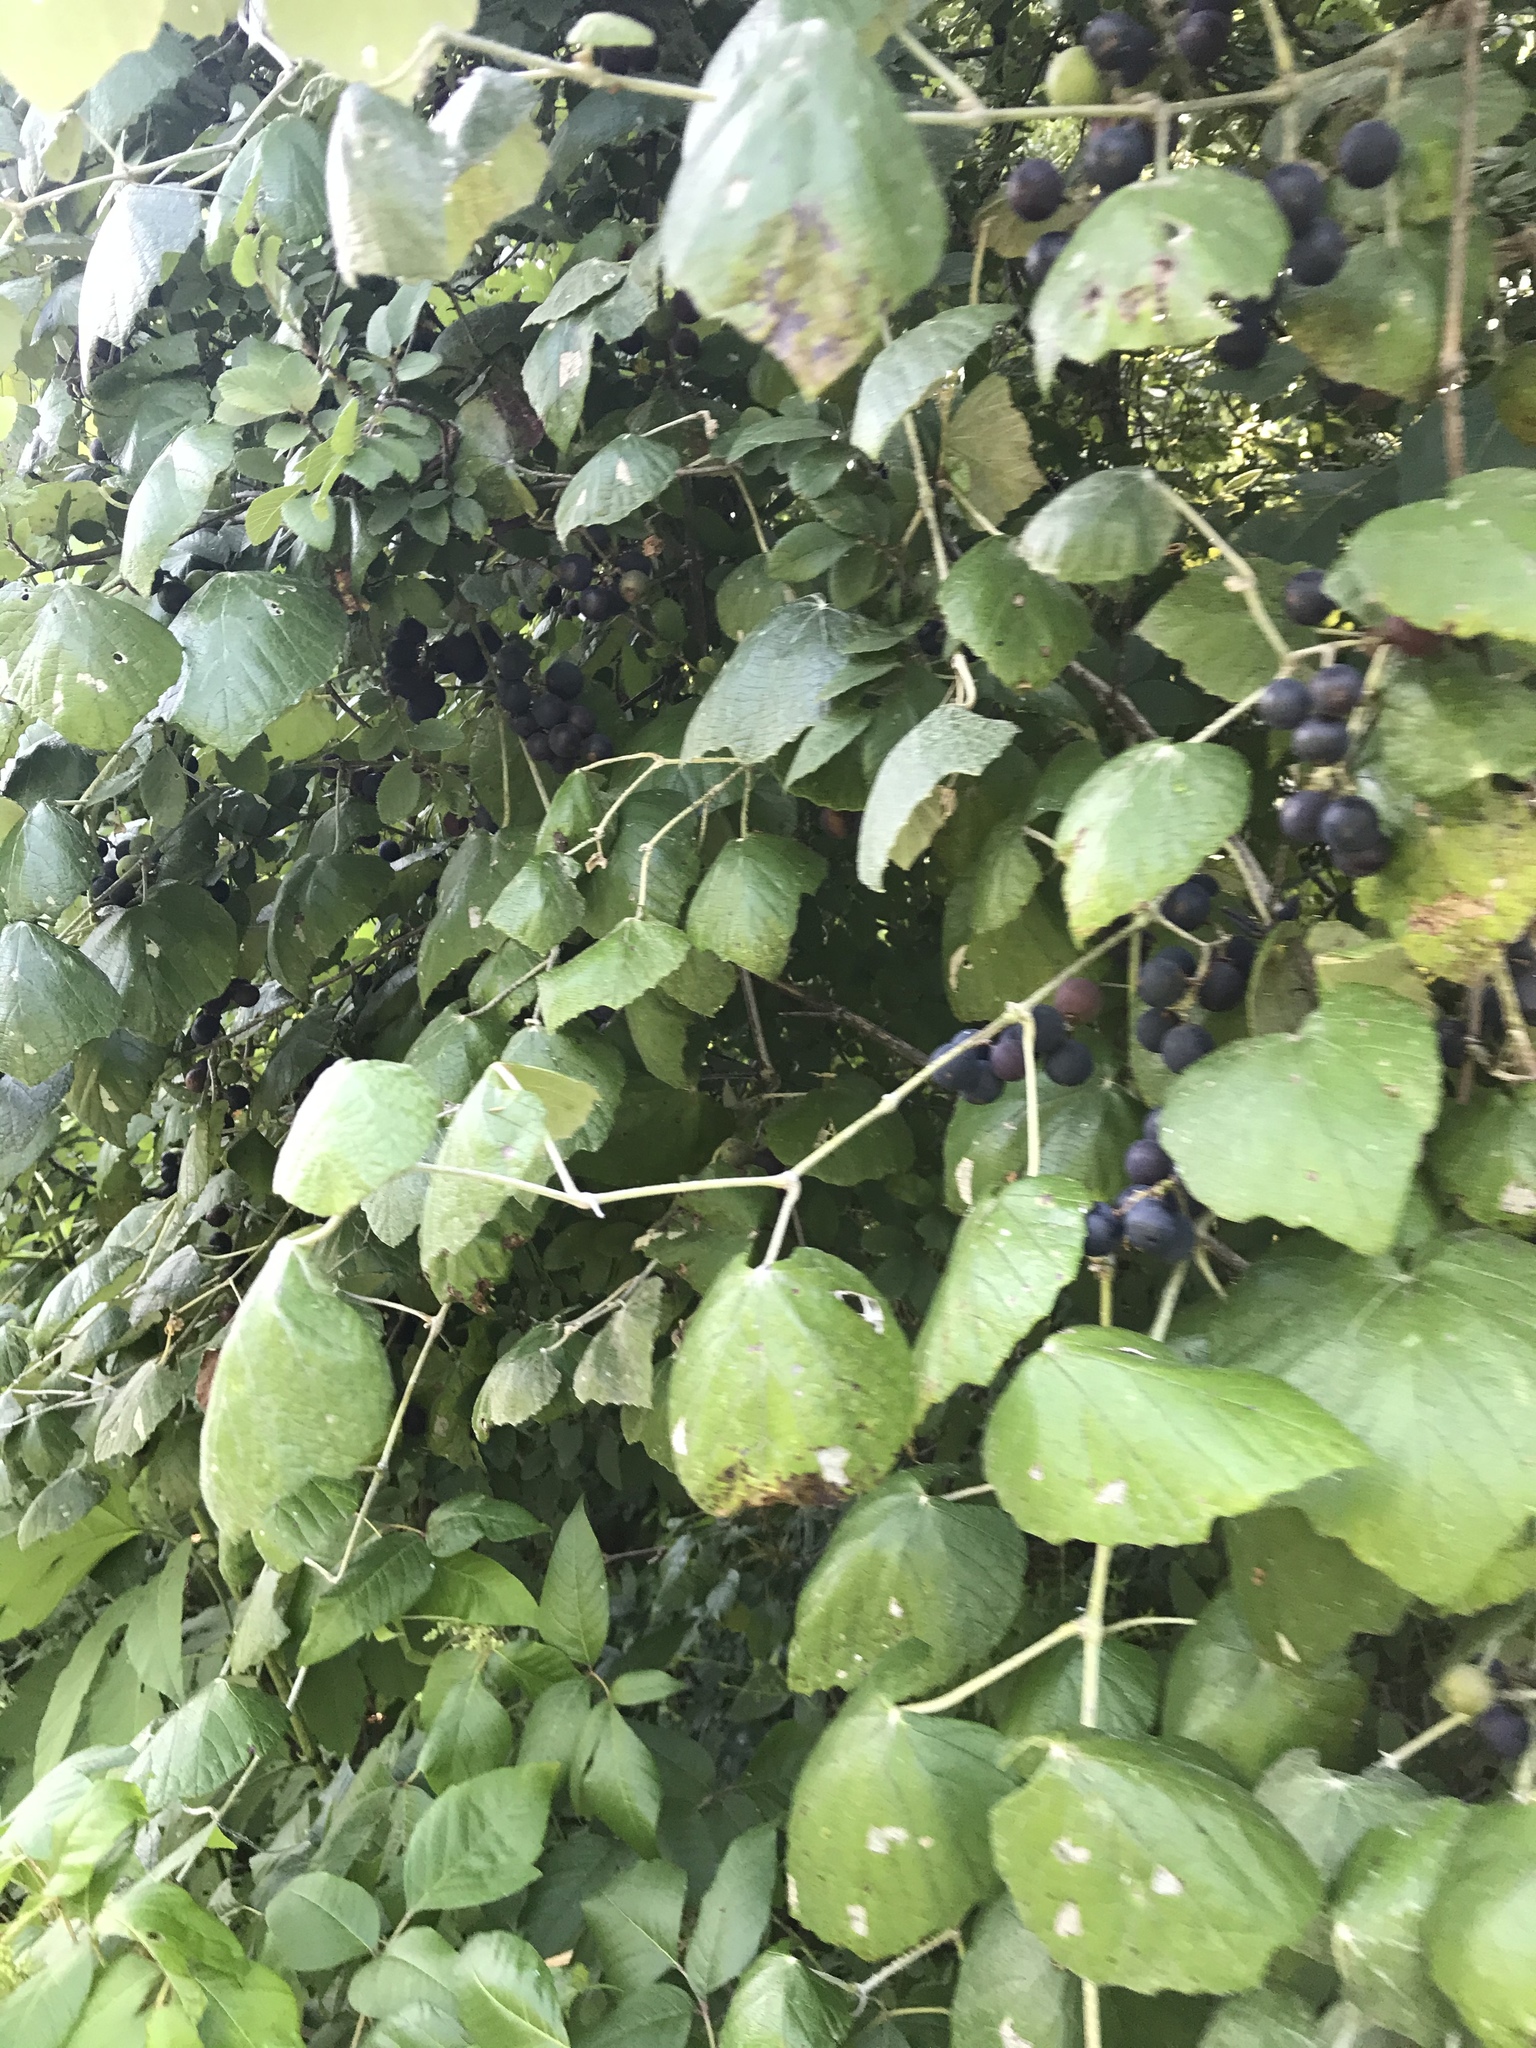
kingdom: Plantae
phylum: Tracheophyta
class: Magnoliopsida
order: Vitales
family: Vitaceae
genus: Vitis
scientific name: Vitis mustangensis
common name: Mustang grape
